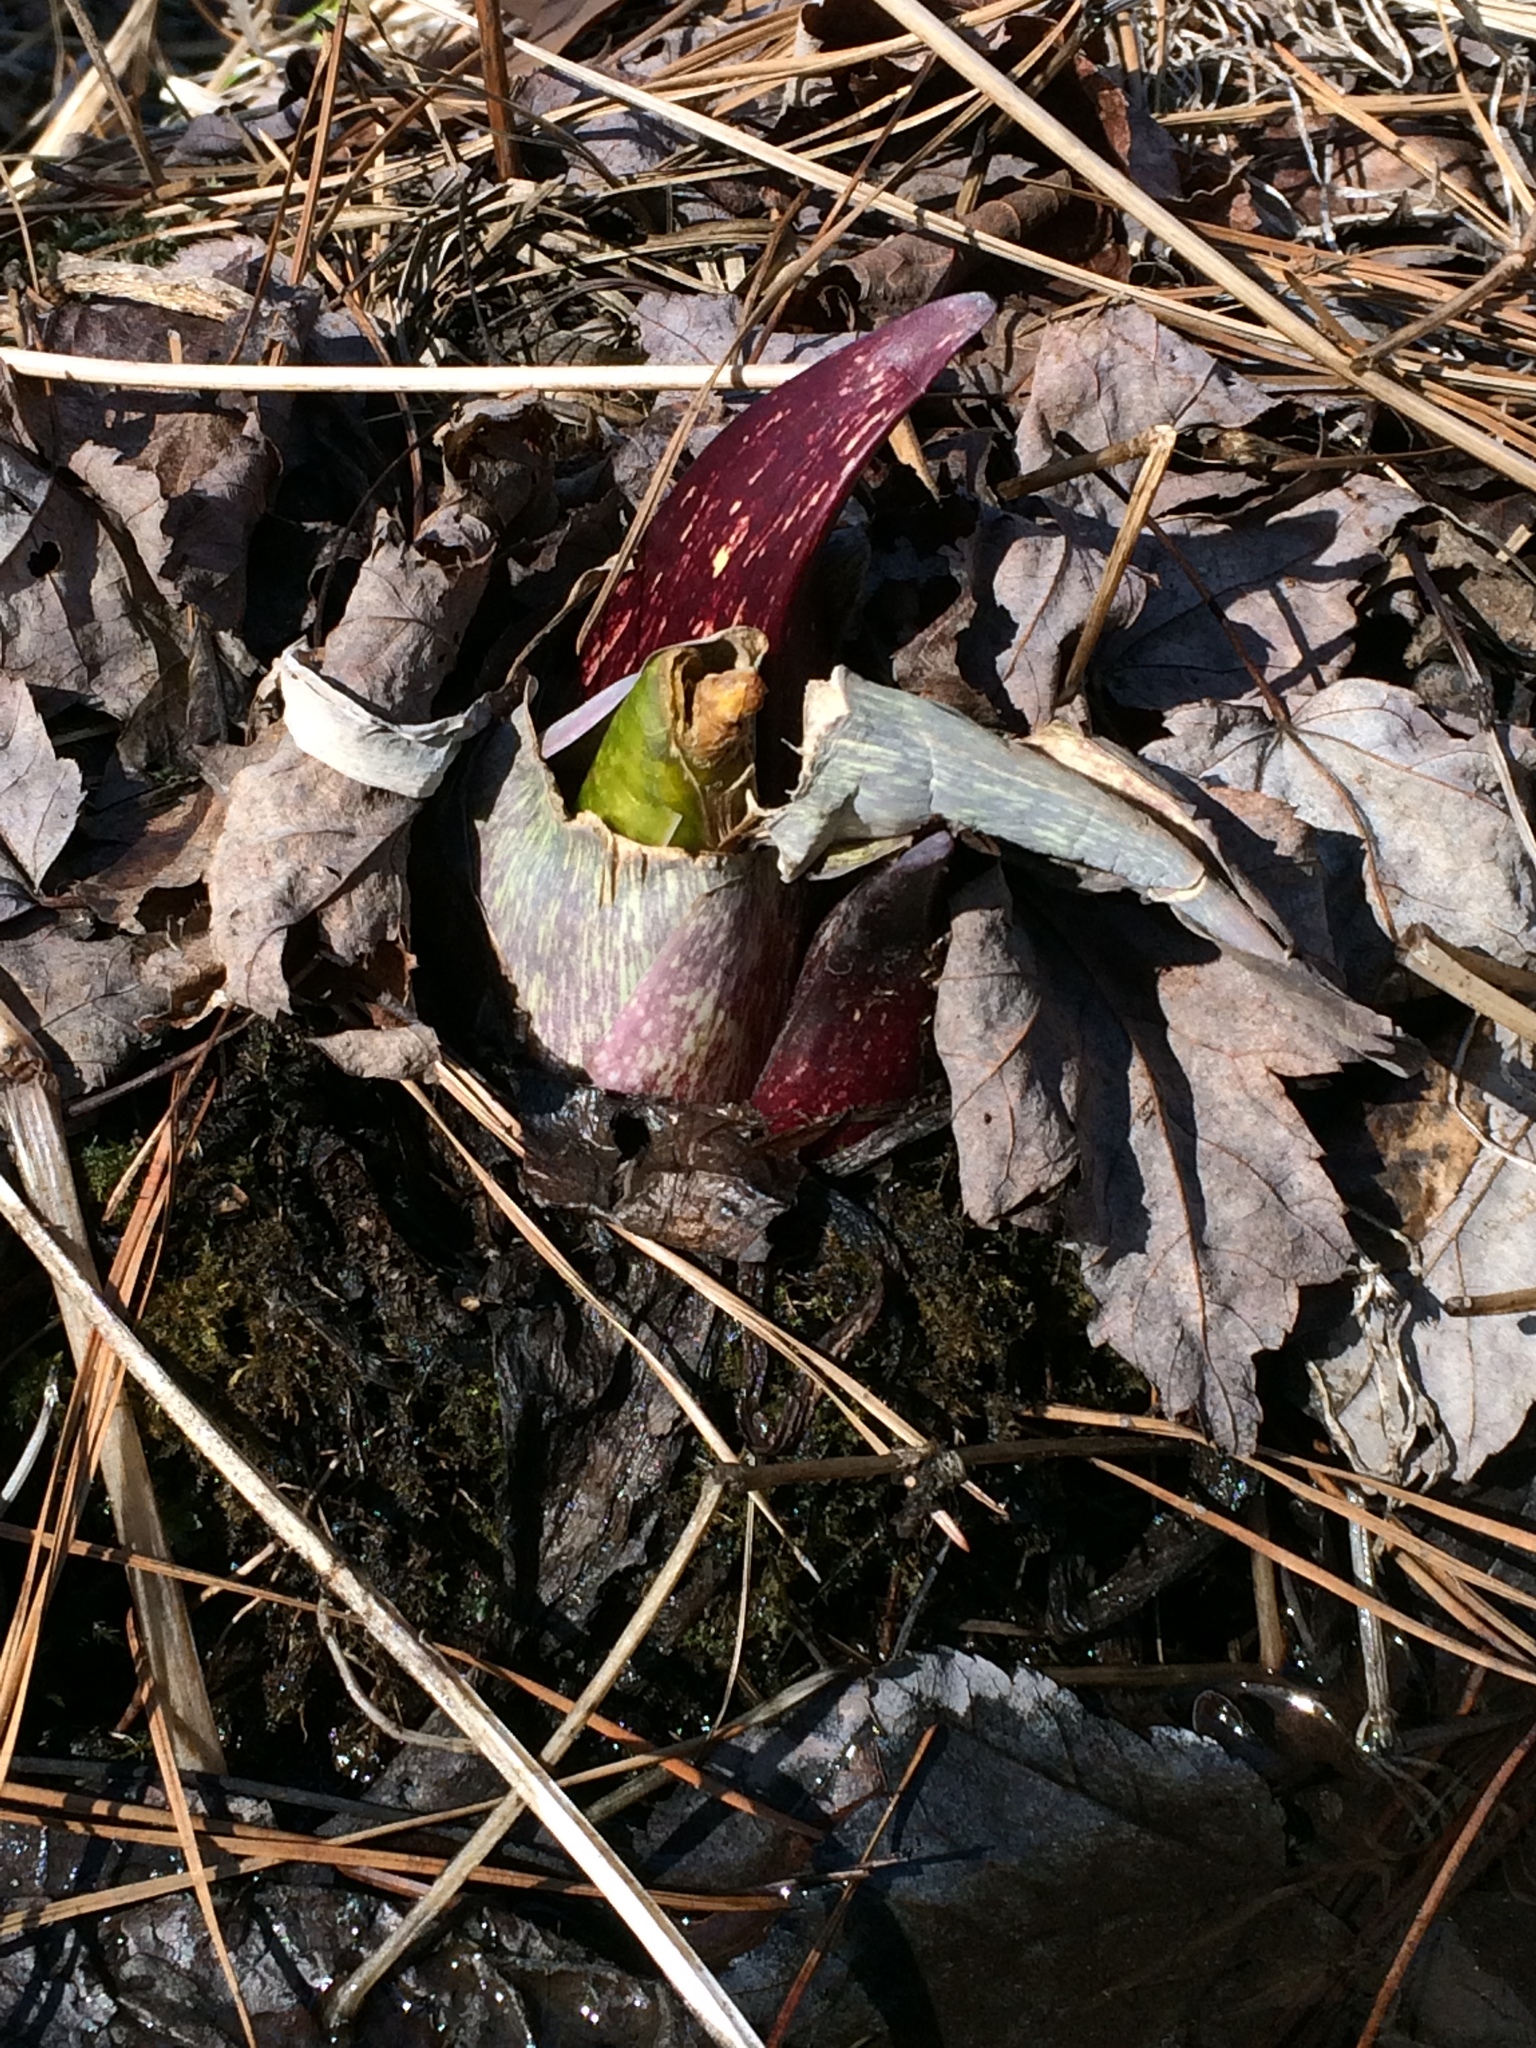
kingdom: Plantae
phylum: Tracheophyta
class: Liliopsida
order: Alismatales
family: Araceae
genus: Symplocarpus
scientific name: Symplocarpus foetidus
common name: Eastern skunk cabbage
